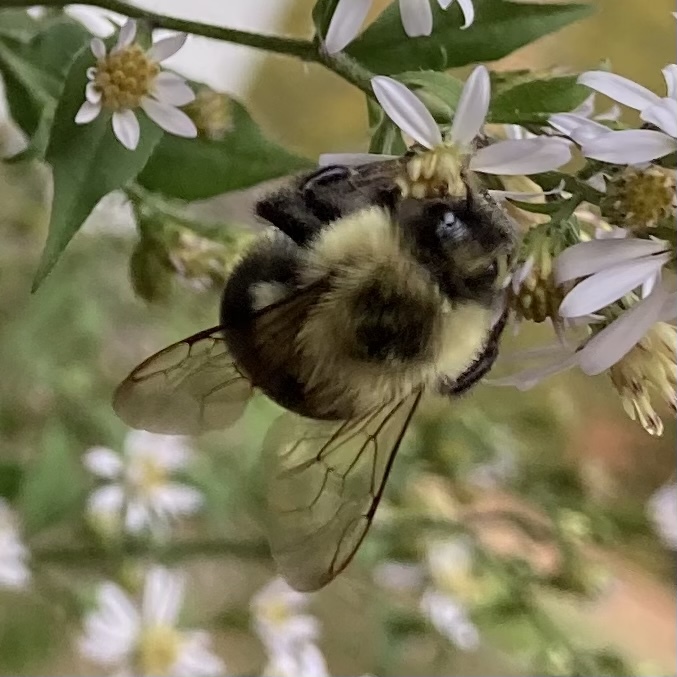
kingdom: Animalia
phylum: Arthropoda
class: Insecta
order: Hymenoptera
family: Apidae
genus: Bombus
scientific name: Bombus impatiens
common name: Common eastern bumble bee
